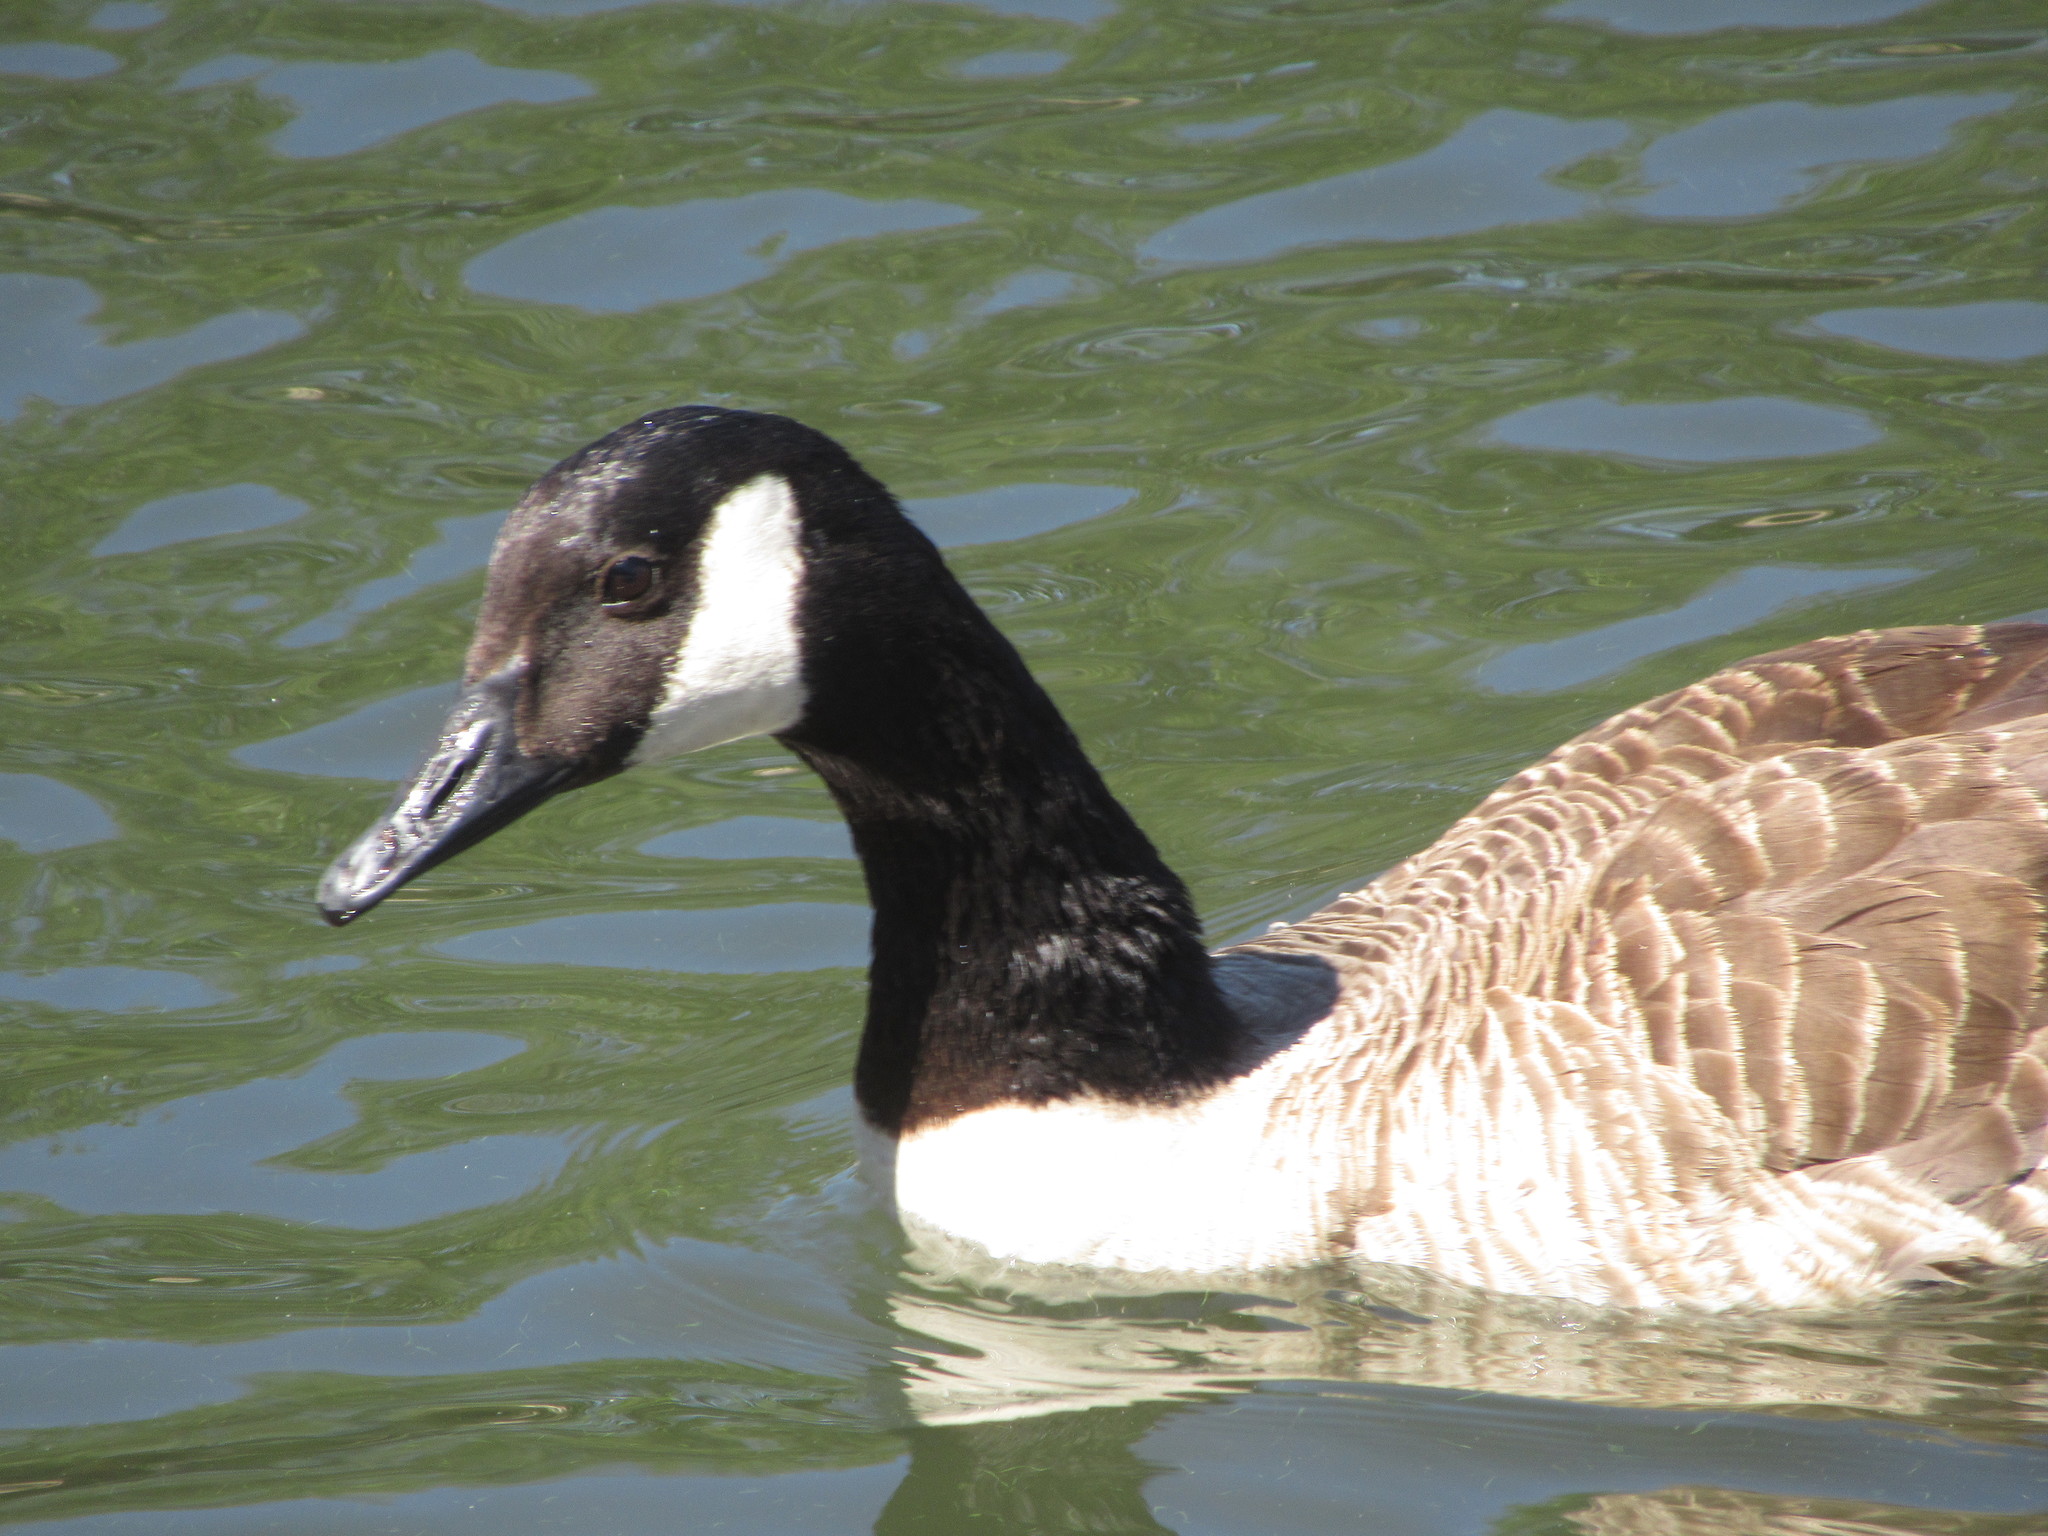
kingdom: Animalia
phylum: Chordata
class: Aves
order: Anseriformes
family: Anatidae
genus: Branta
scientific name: Branta canadensis
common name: Canada goose
